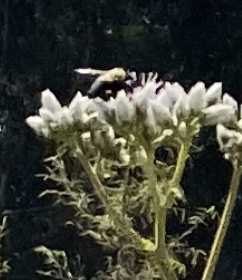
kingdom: Animalia
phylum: Arthropoda
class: Insecta
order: Hymenoptera
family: Apidae
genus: Xylocopa
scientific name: Xylocopa olivacea
